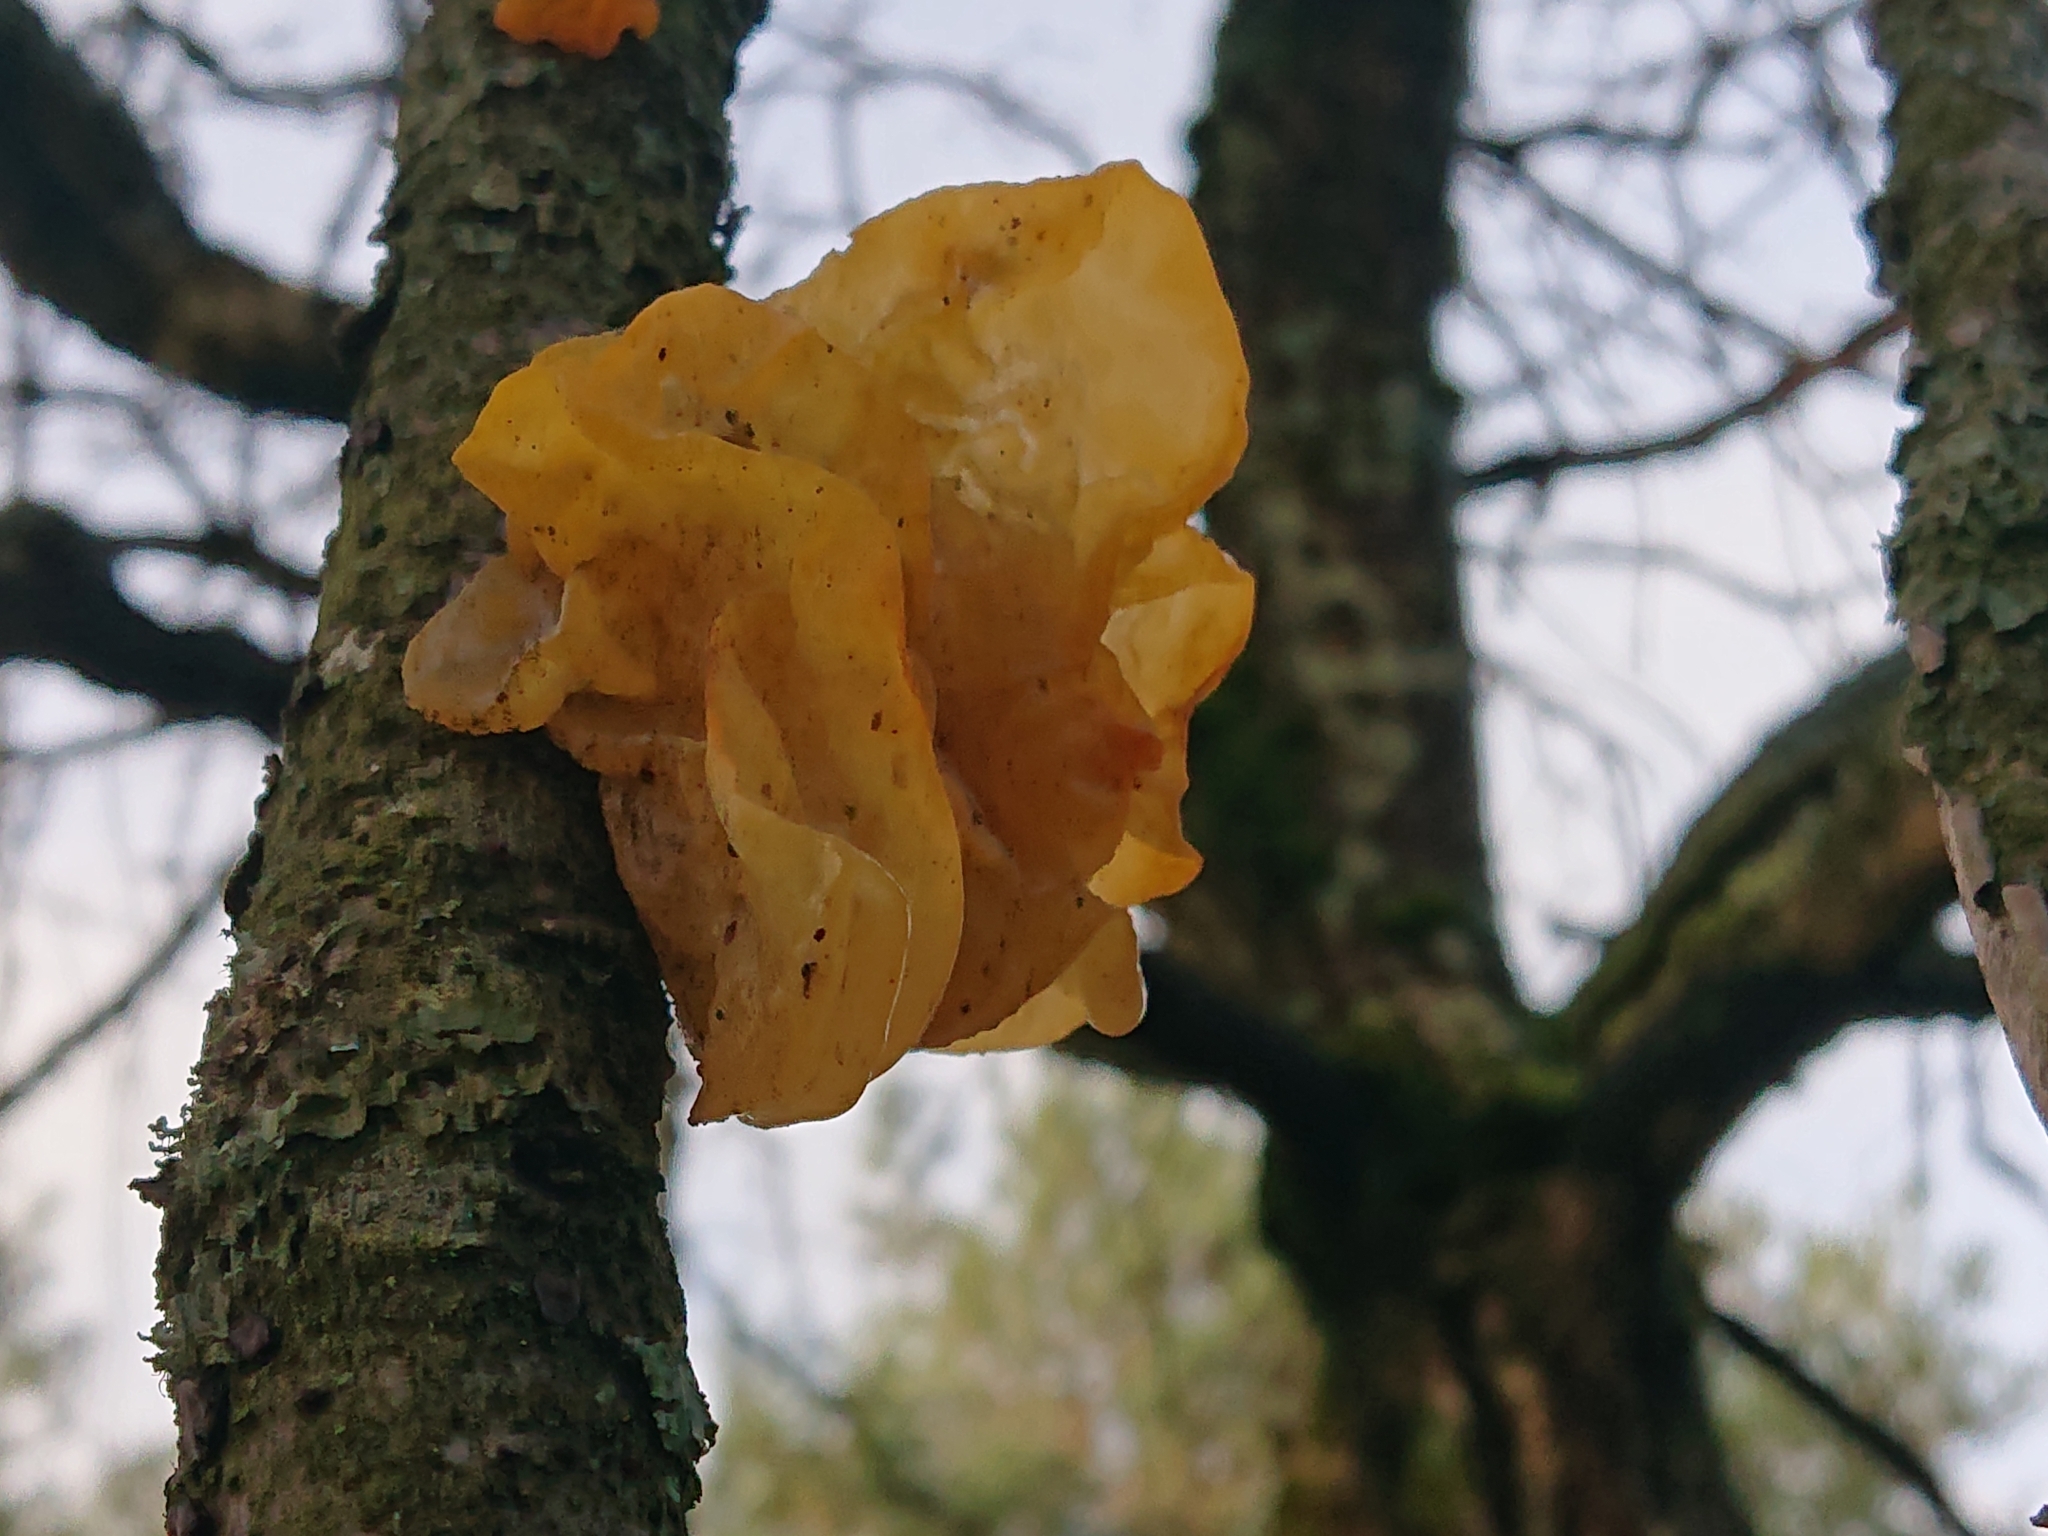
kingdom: Fungi
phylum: Basidiomycota
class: Tremellomycetes
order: Tremellales
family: Tremellaceae
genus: Tremella
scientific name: Tremella mesenterica
